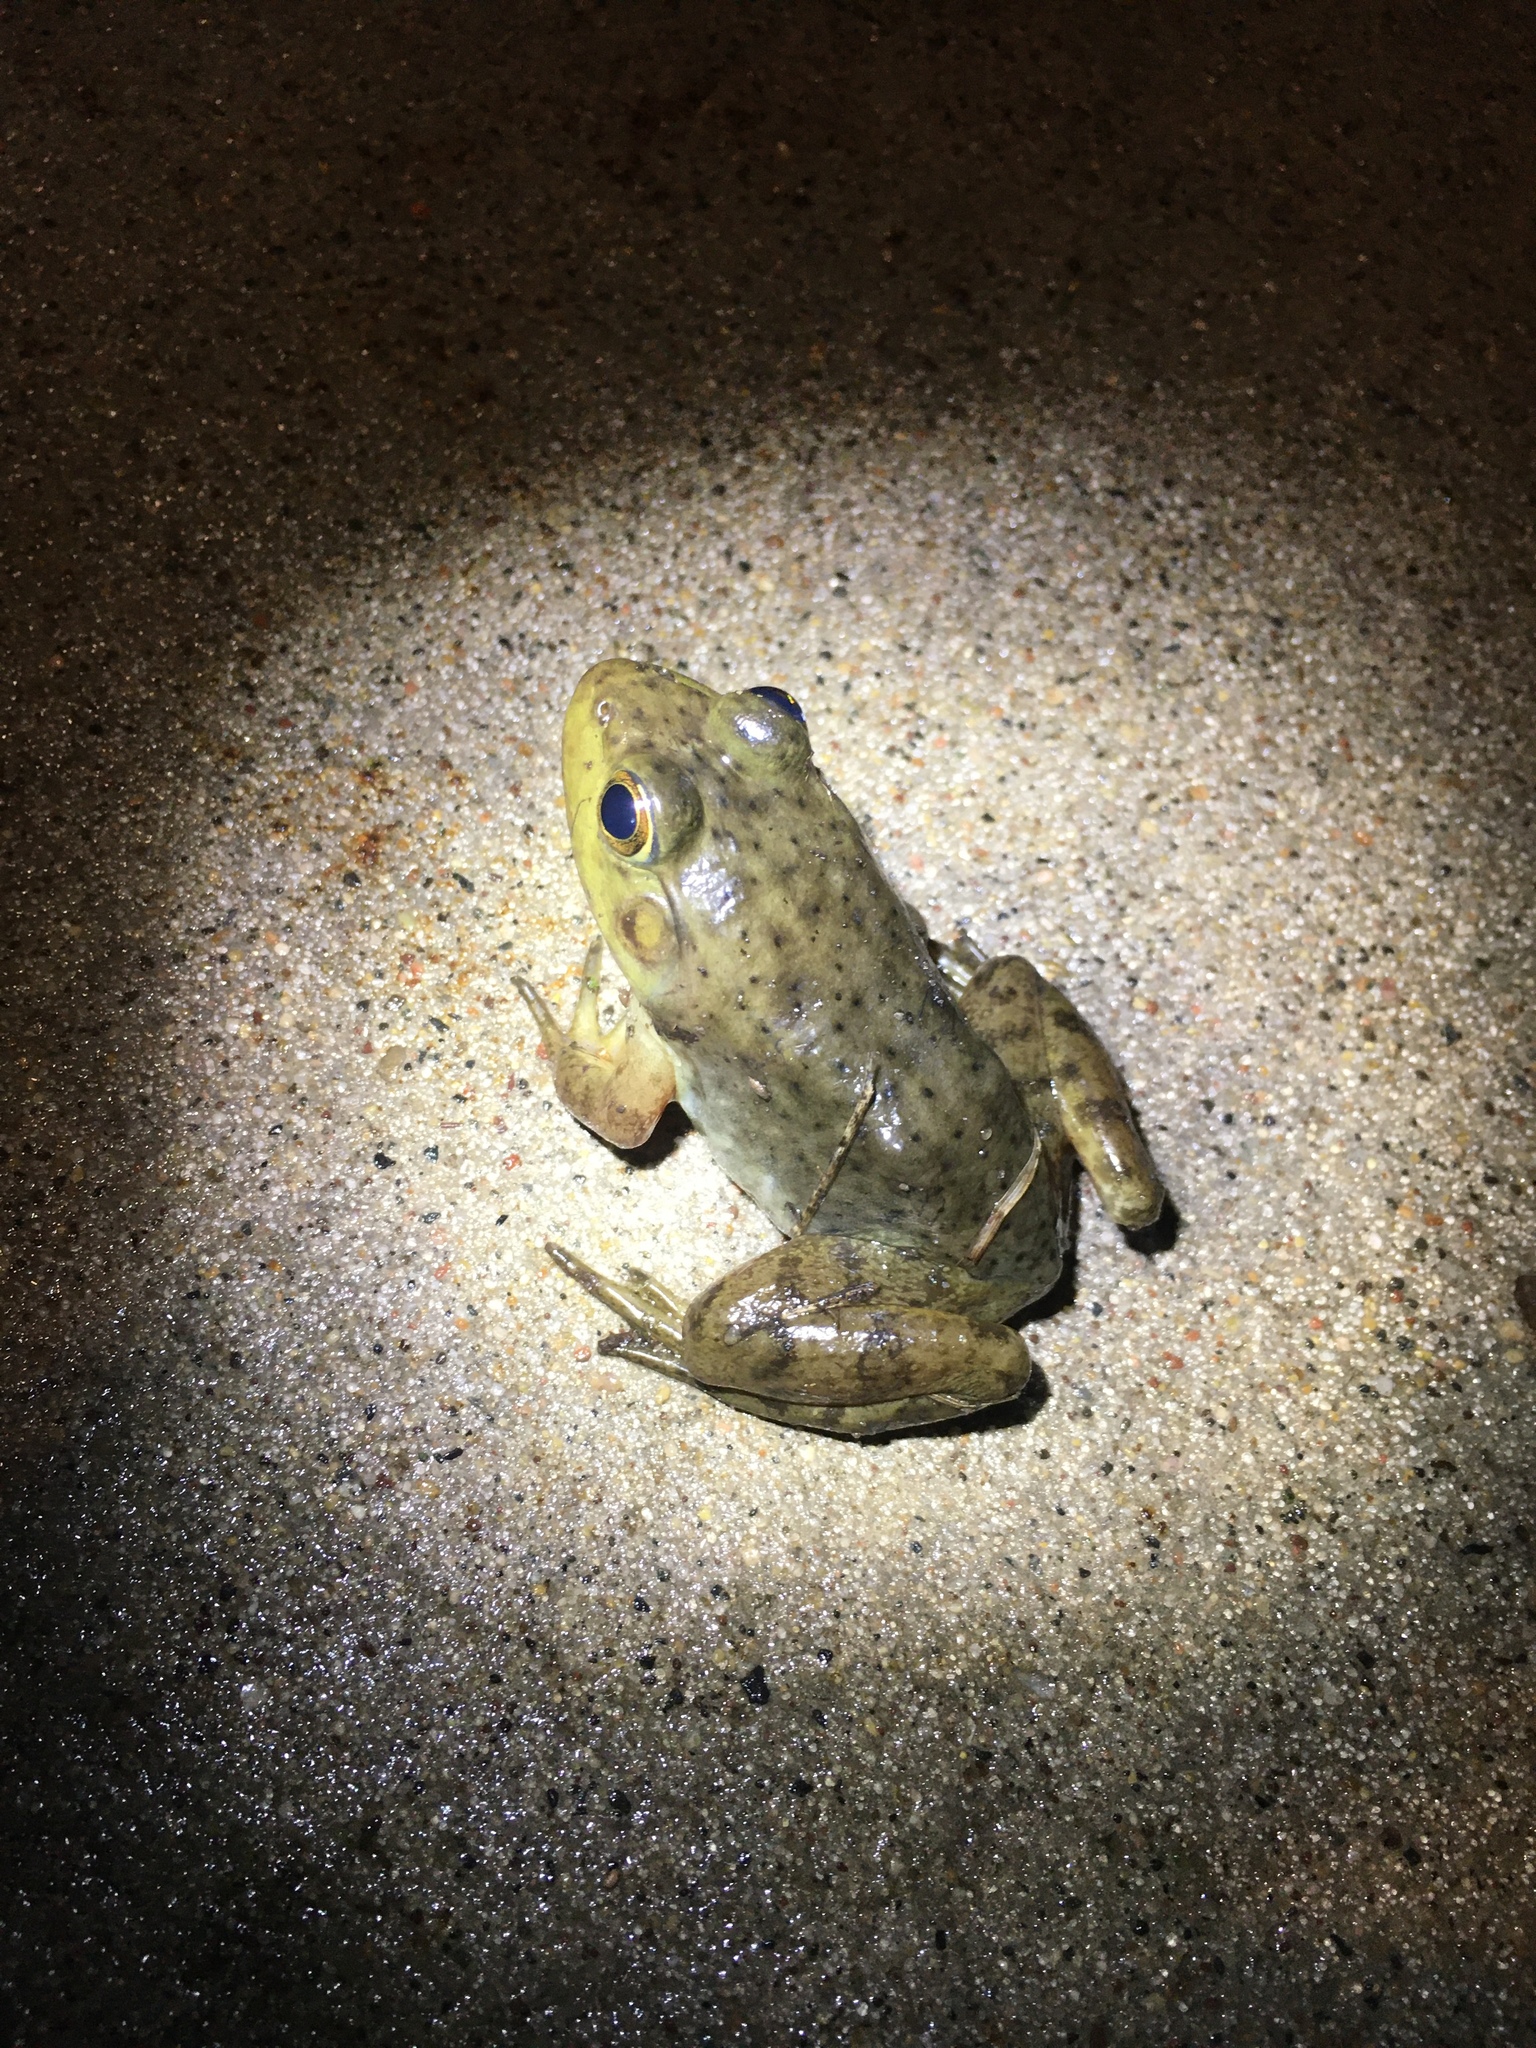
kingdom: Animalia
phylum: Chordata
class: Amphibia
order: Anura
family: Ranidae
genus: Lithobates
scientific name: Lithobates catesbeianus
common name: American bullfrog
